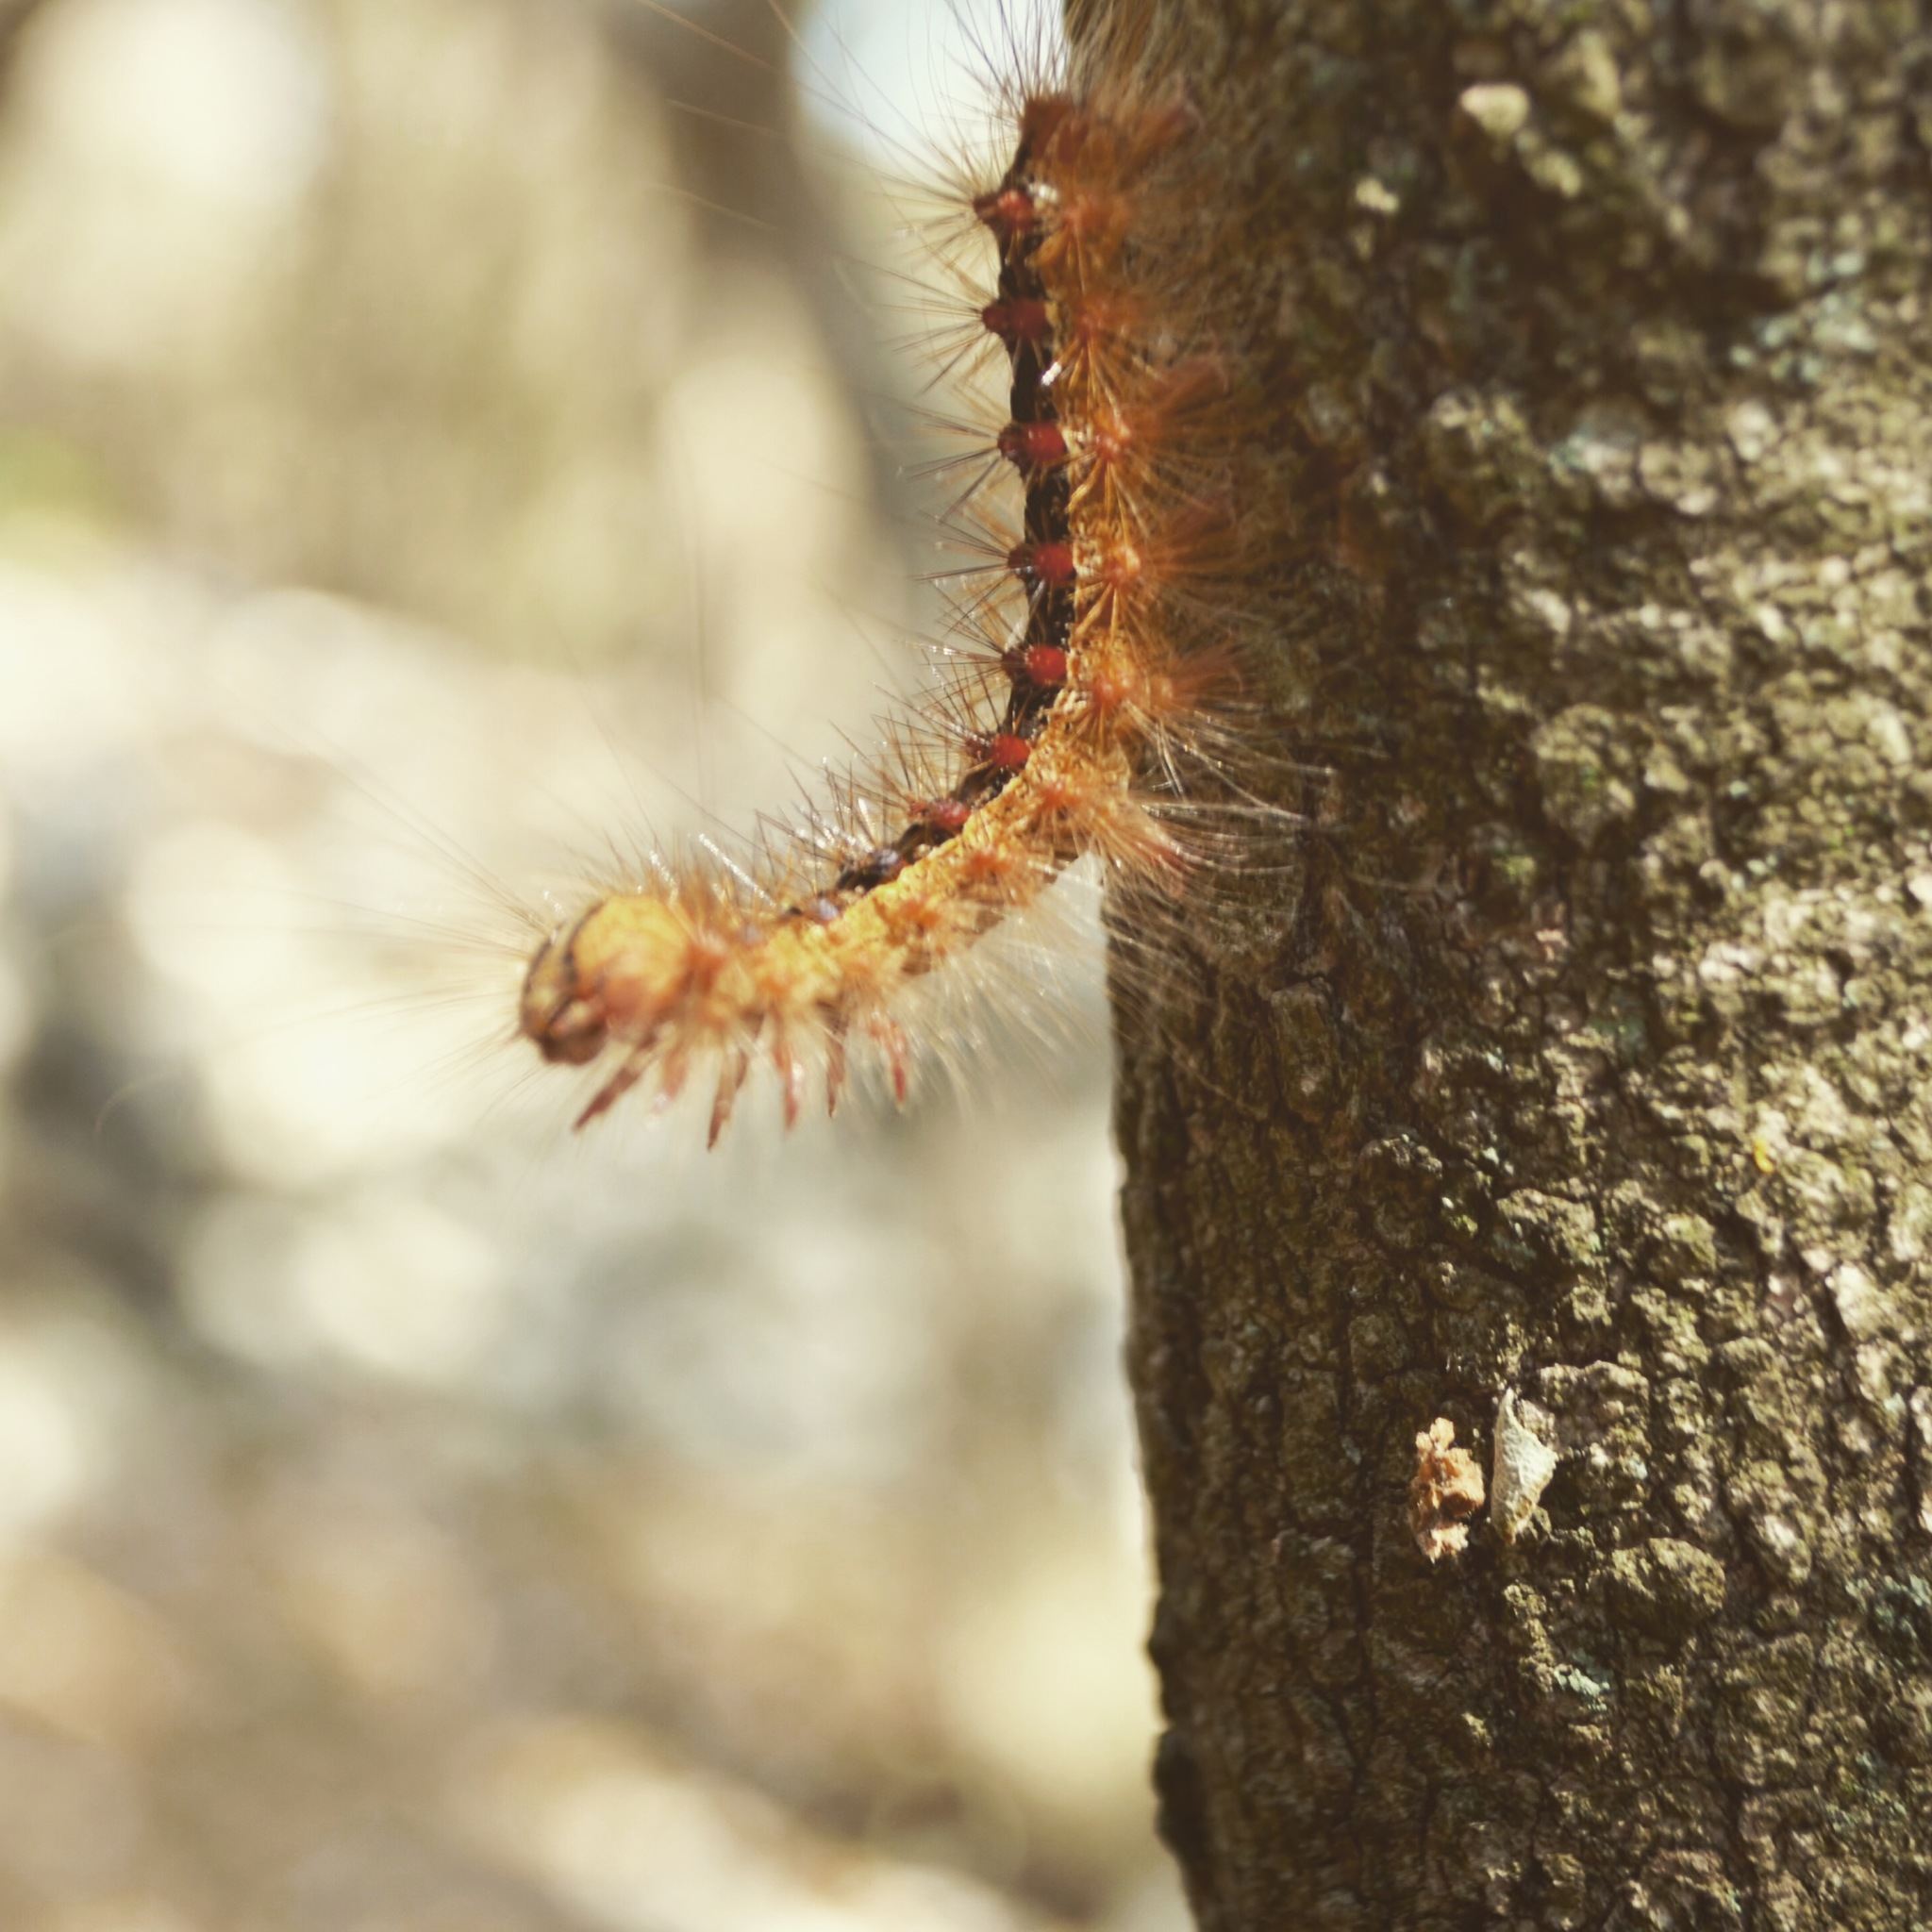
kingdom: Animalia
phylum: Arthropoda
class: Insecta
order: Lepidoptera
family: Erebidae
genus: Lymantria
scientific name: Lymantria dispar
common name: Gypsy moth
